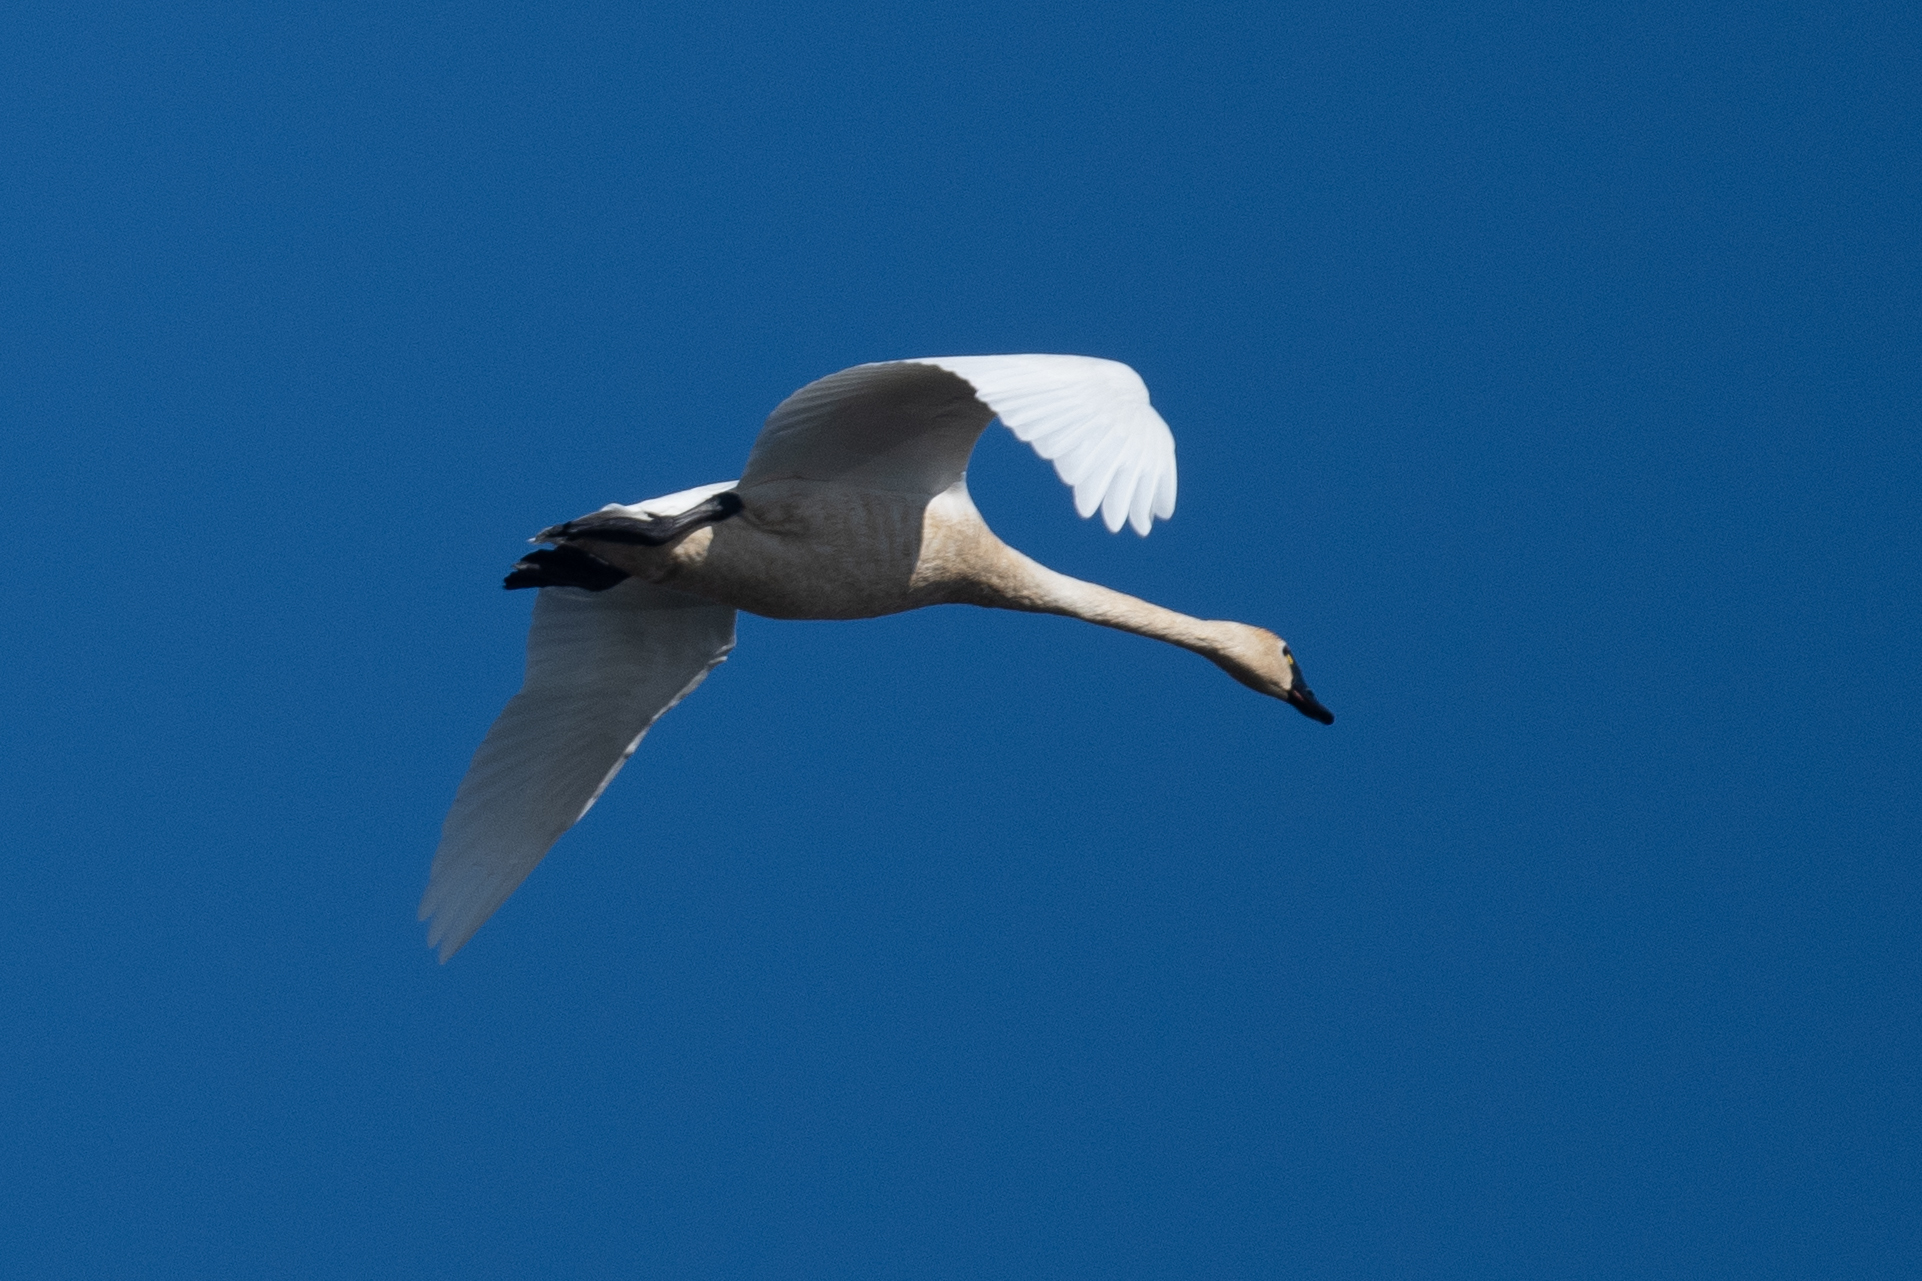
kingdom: Animalia
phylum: Chordata
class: Aves
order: Anseriformes
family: Anatidae
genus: Cygnus
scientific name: Cygnus columbianus
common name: Tundra swan
